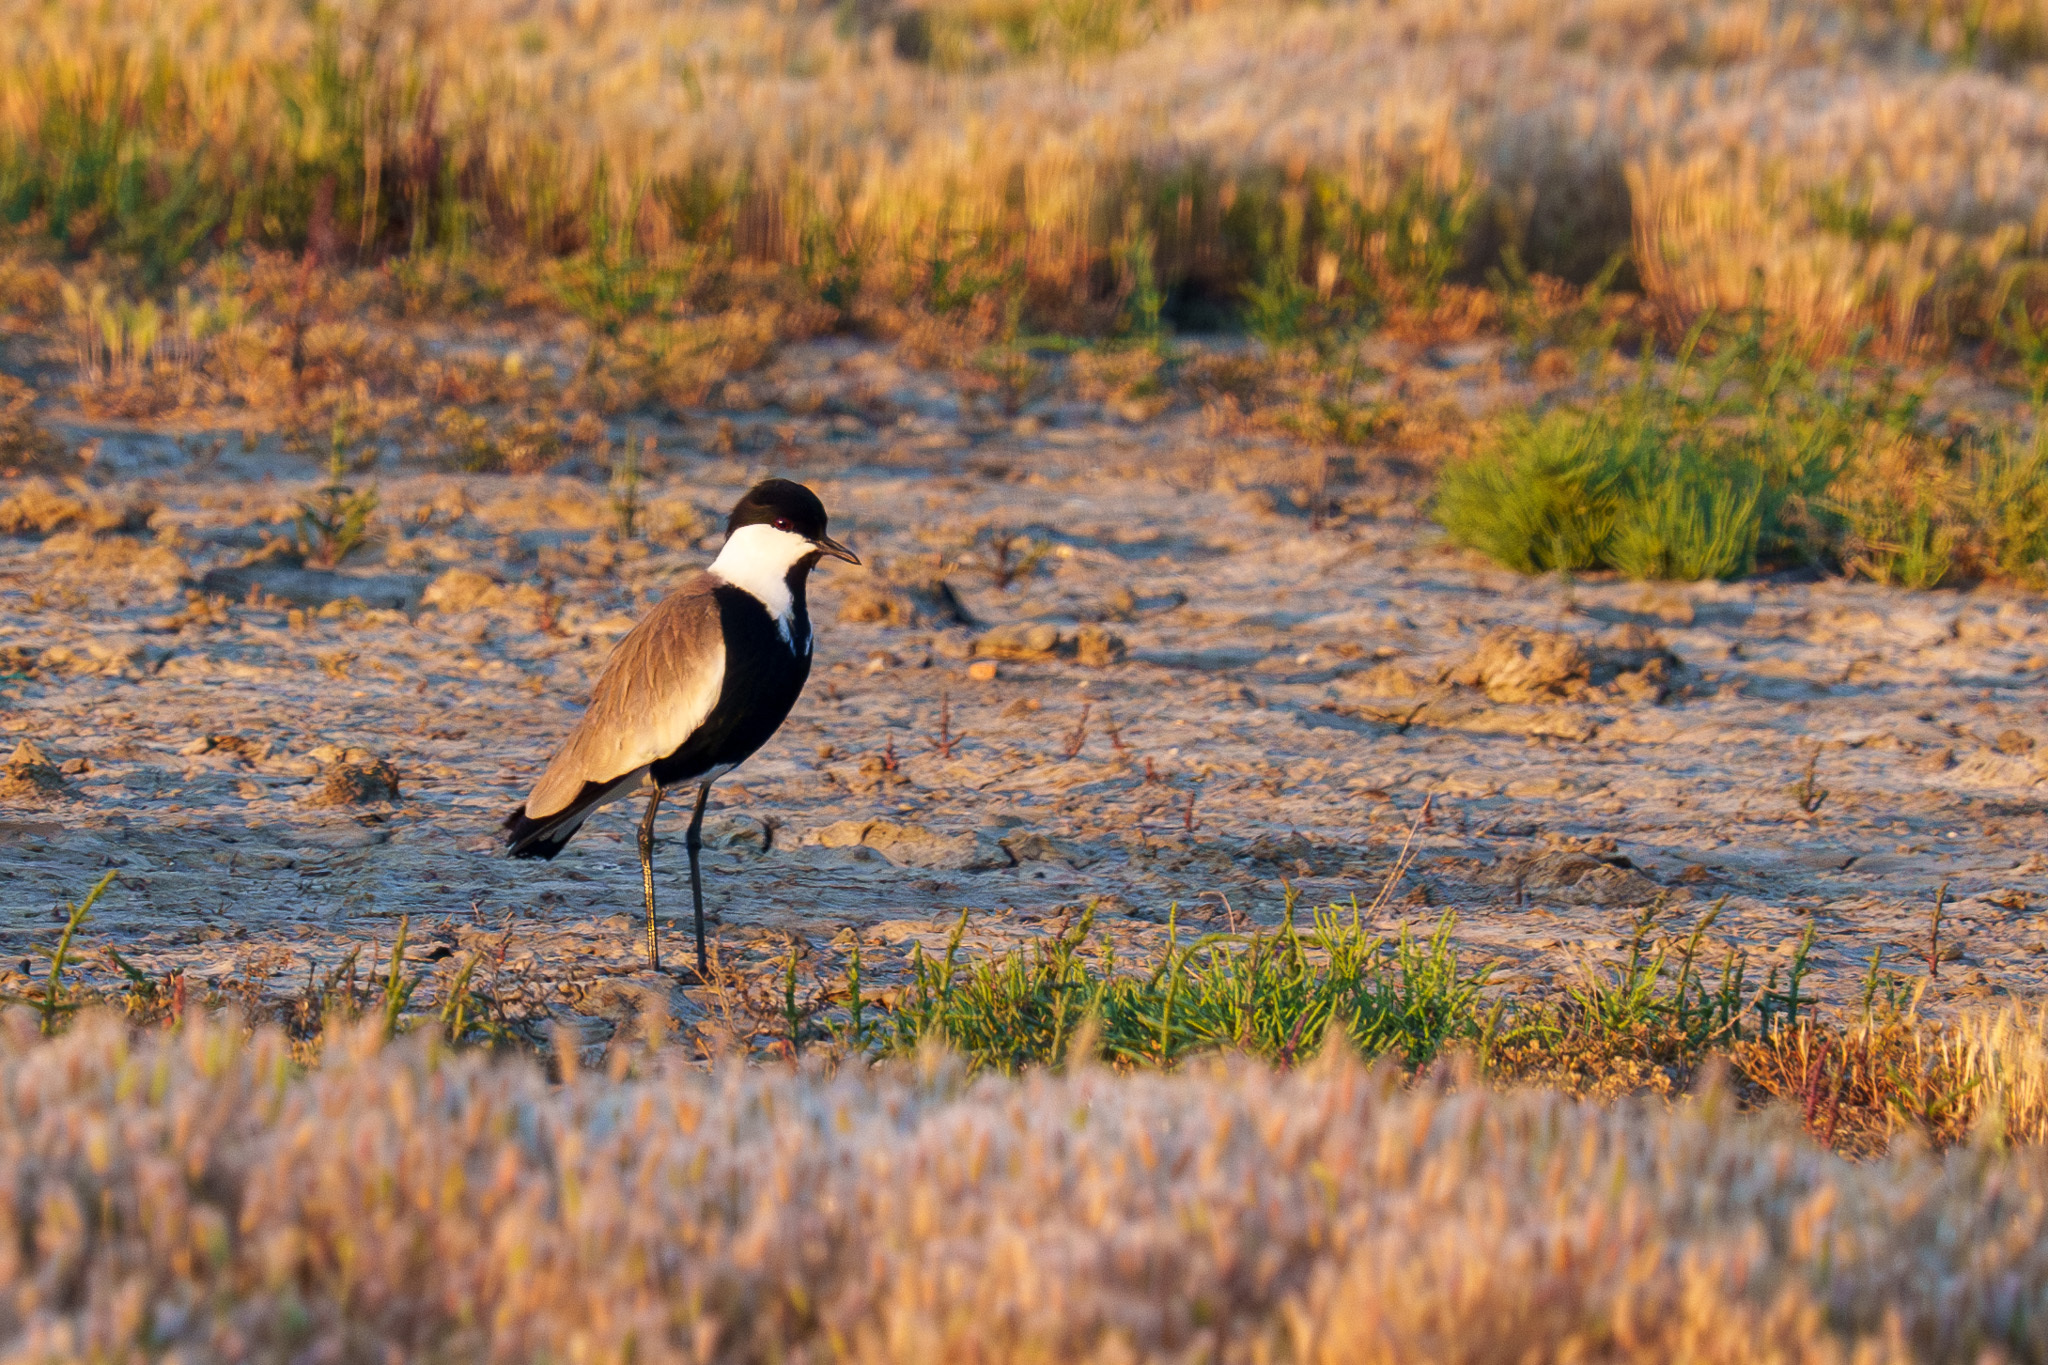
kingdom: Animalia
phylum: Chordata
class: Aves
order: Charadriiformes
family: Charadriidae
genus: Vanellus
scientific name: Vanellus spinosus
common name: Spur-winged lapwing
